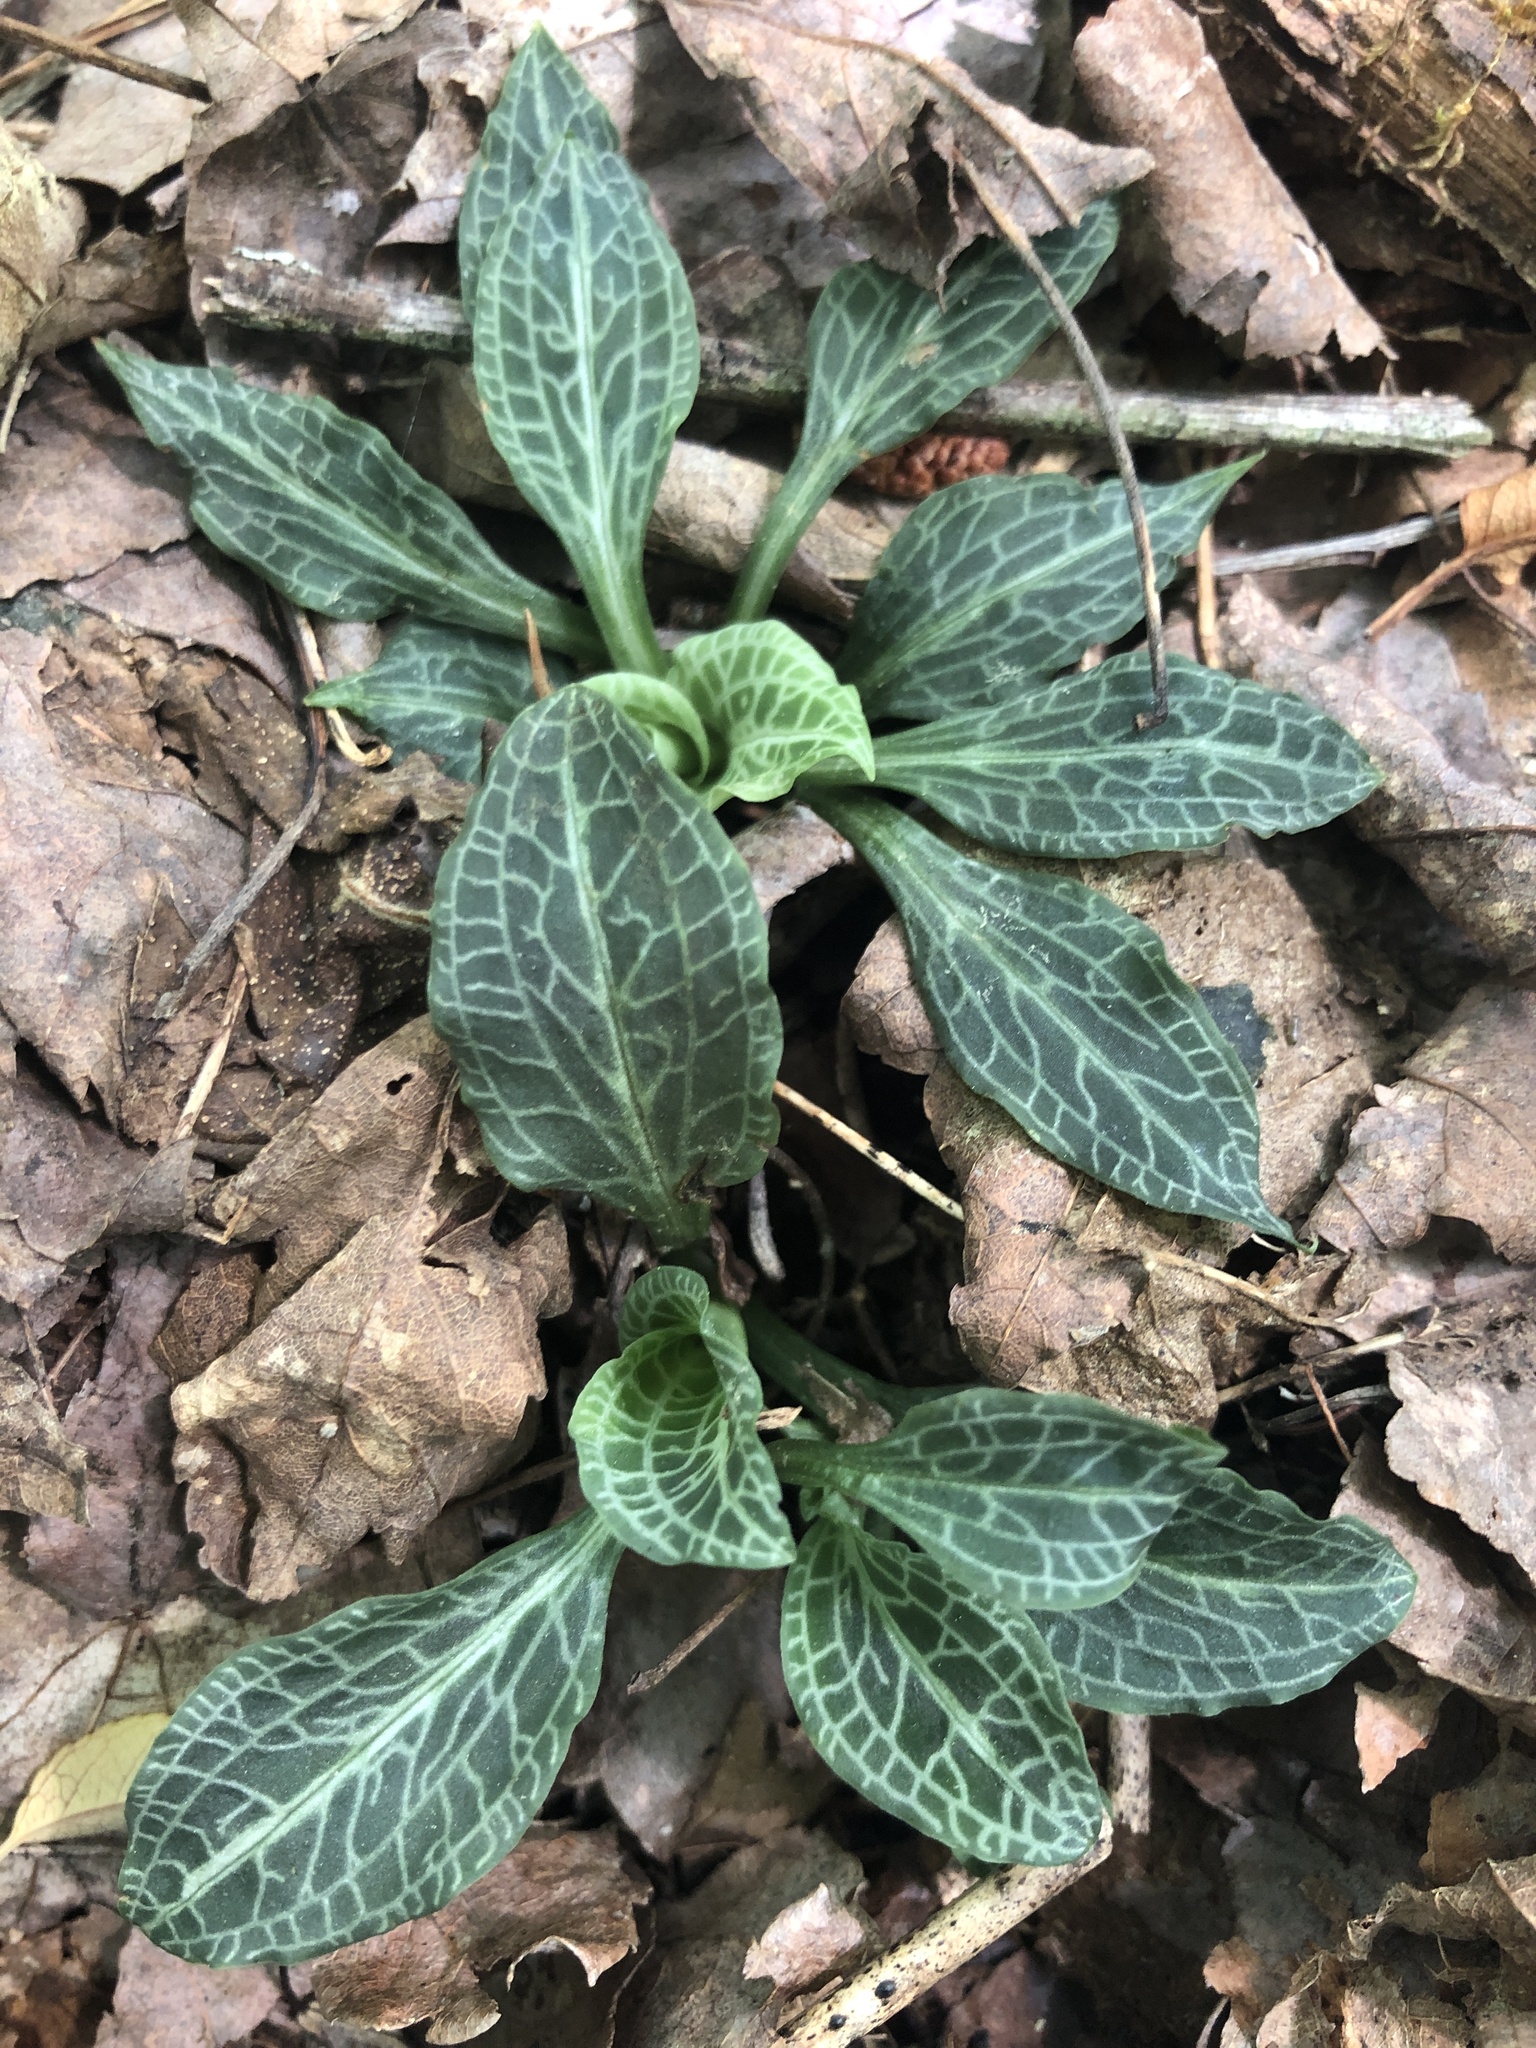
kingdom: Plantae
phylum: Tracheophyta
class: Liliopsida
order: Asparagales
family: Orchidaceae
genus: Goodyera
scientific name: Goodyera pubescens
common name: Downy rattlesnake-plantain
